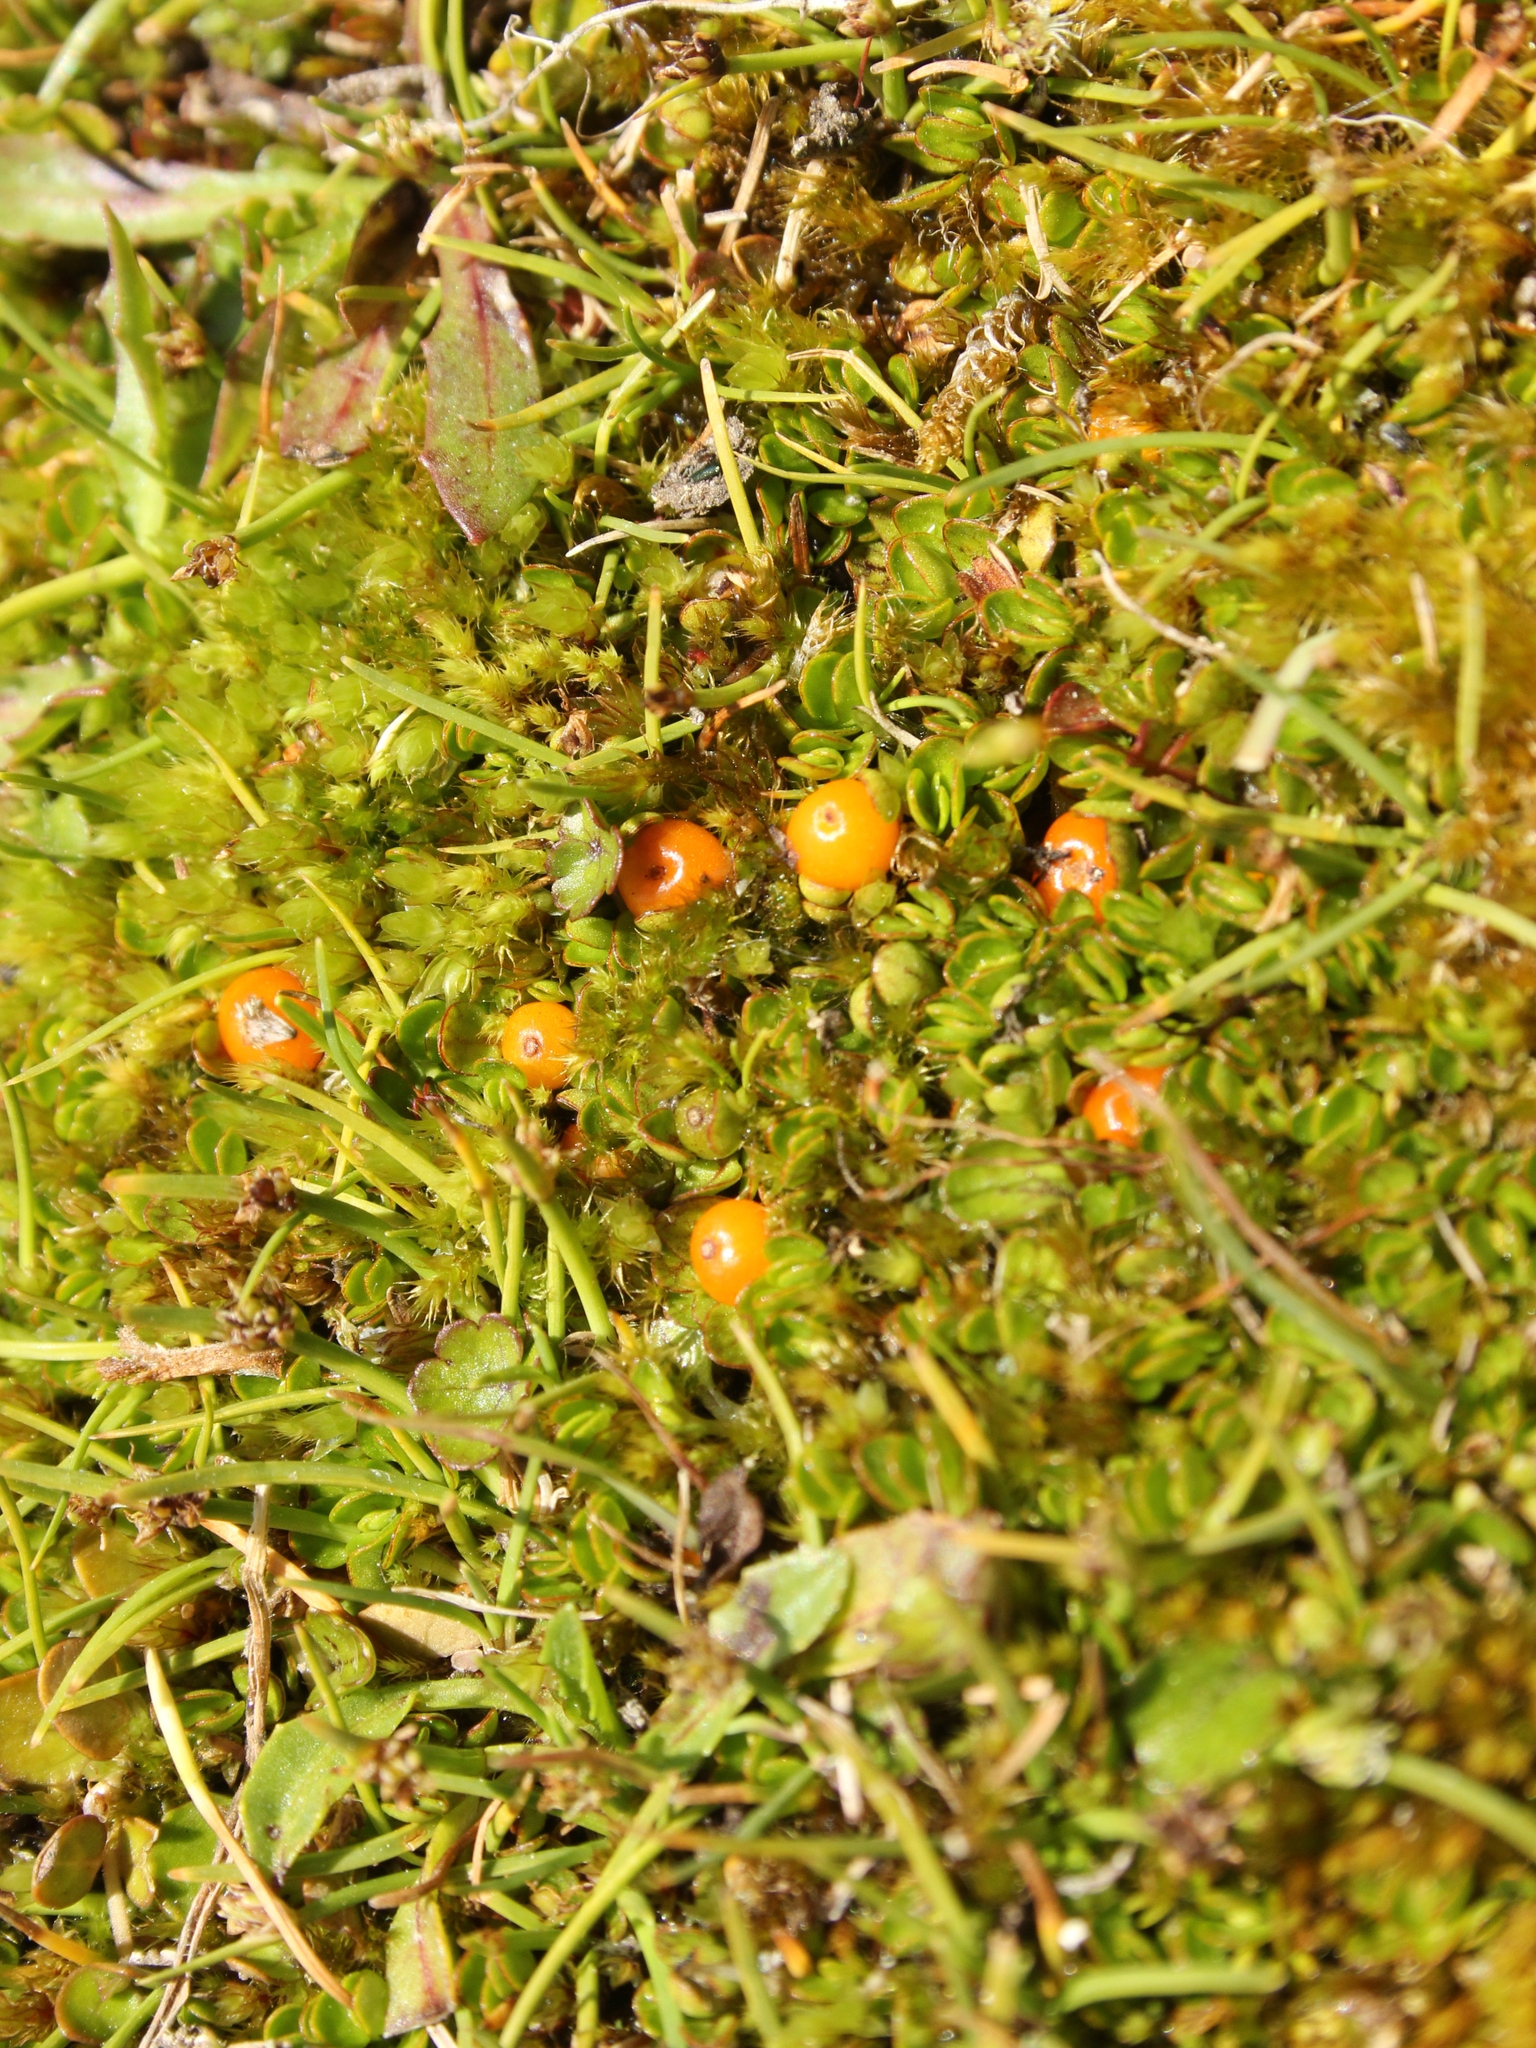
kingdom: Plantae
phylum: Tracheophyta
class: Magnoliopsida
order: Gentianales
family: Rubiaceae
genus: Nertera
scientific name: Nertera balfouriana
